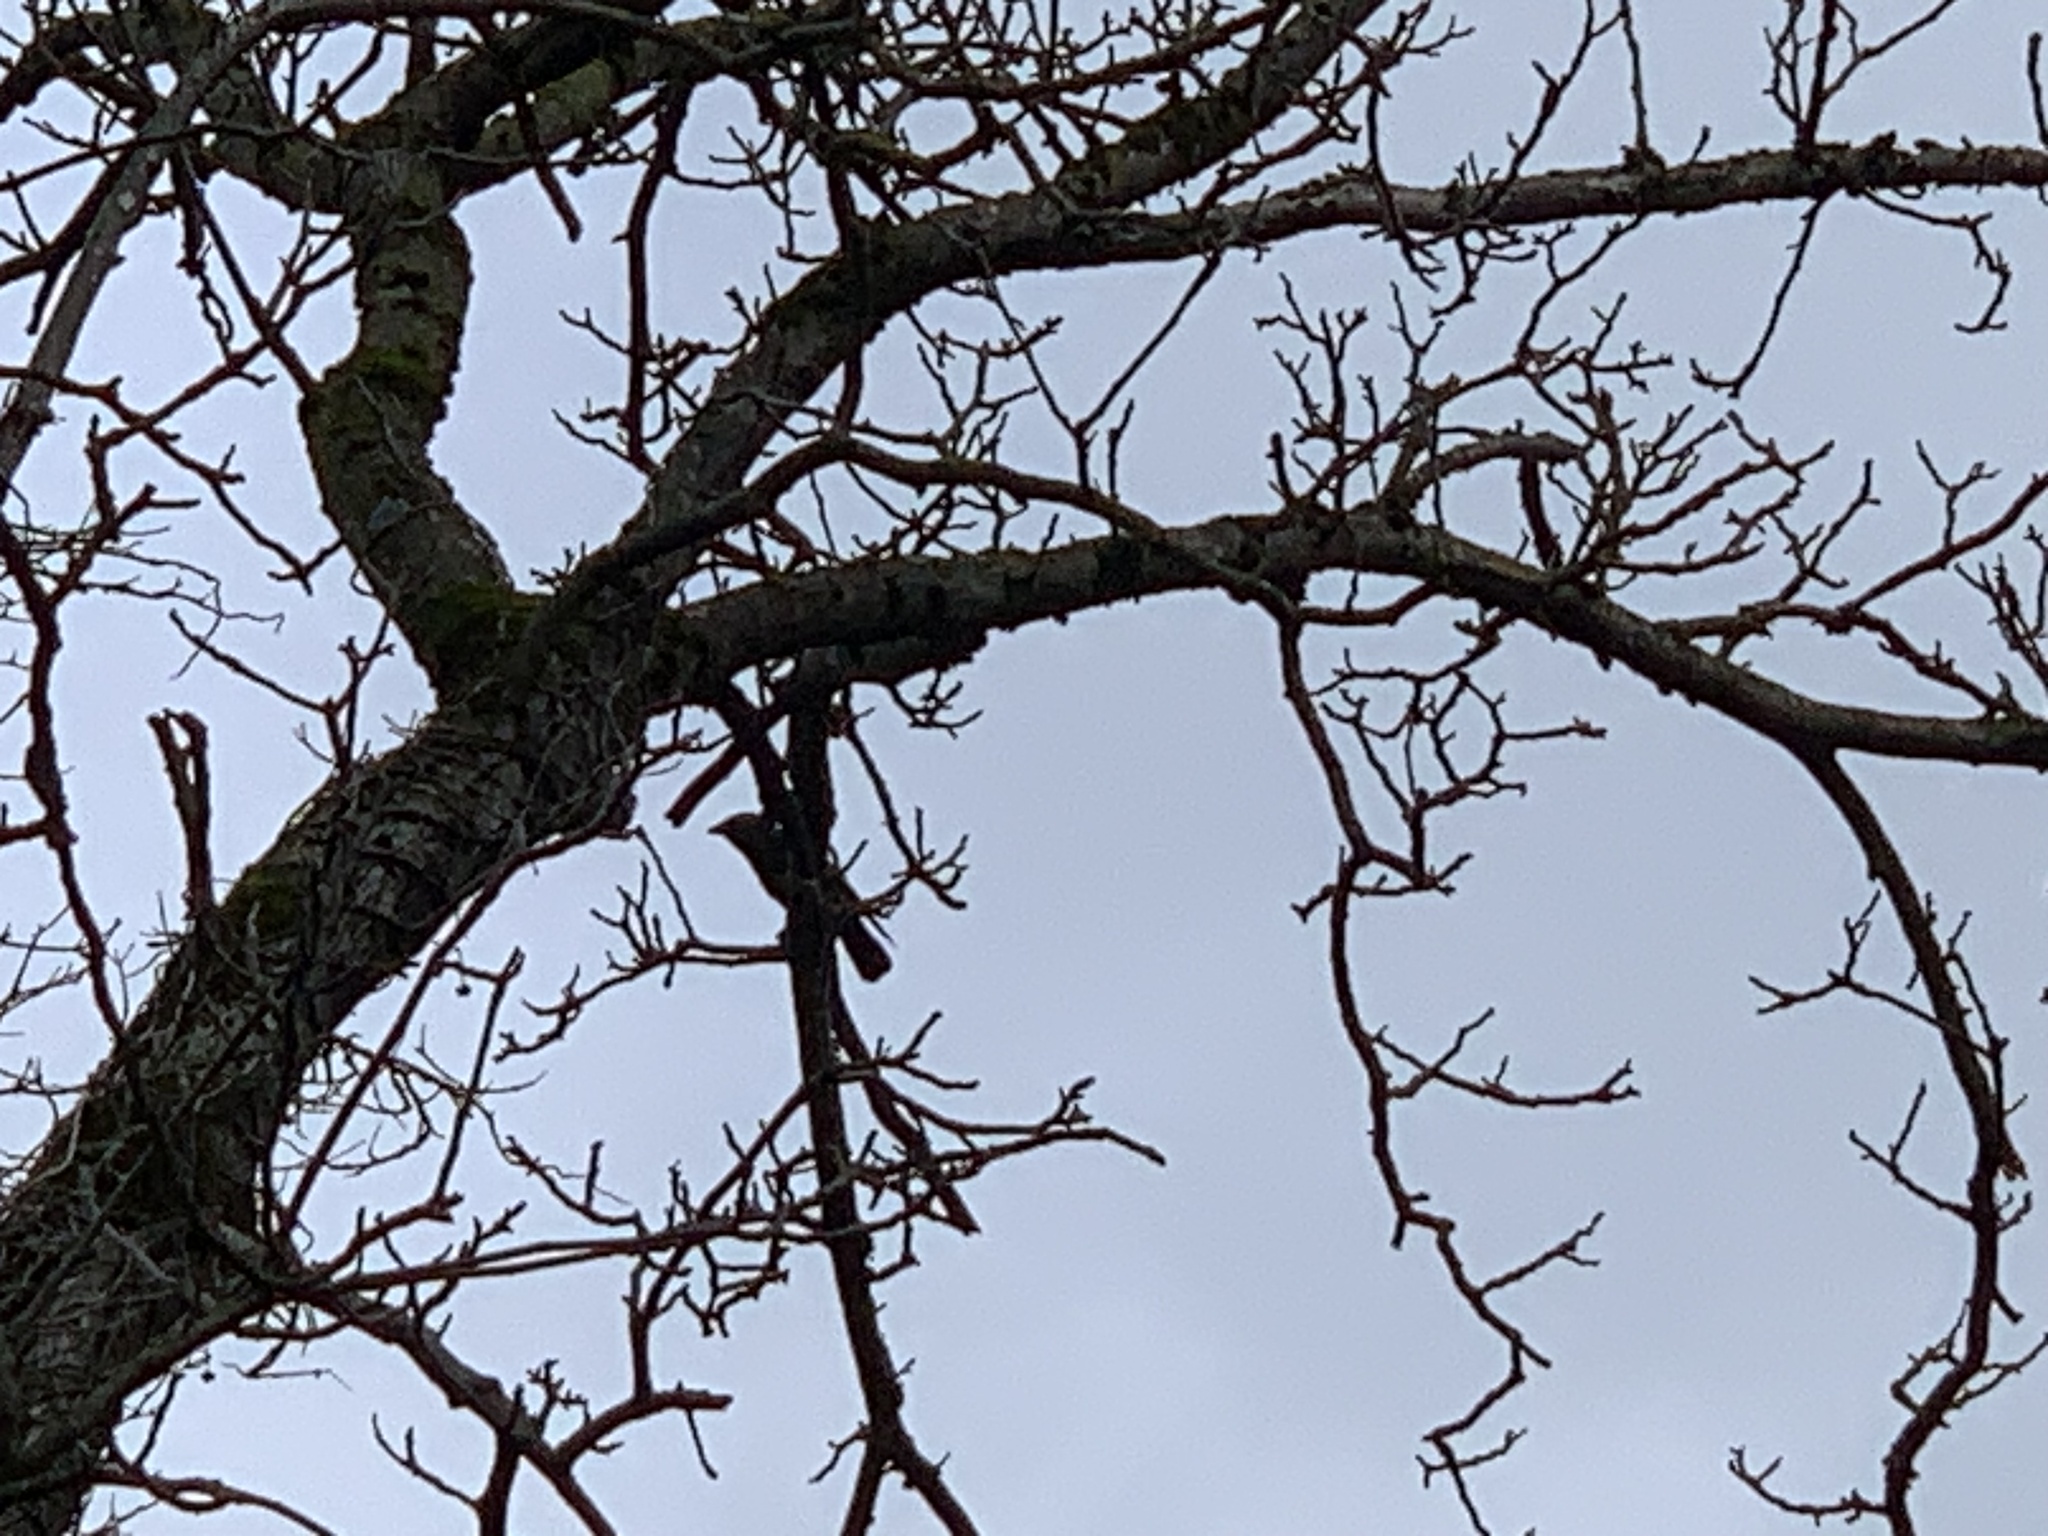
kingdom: Animalia
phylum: Chordata
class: Aves
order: Passeriformes
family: Corvidae
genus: Coloeus
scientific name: Coloeus monedula
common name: Western jackdaw
